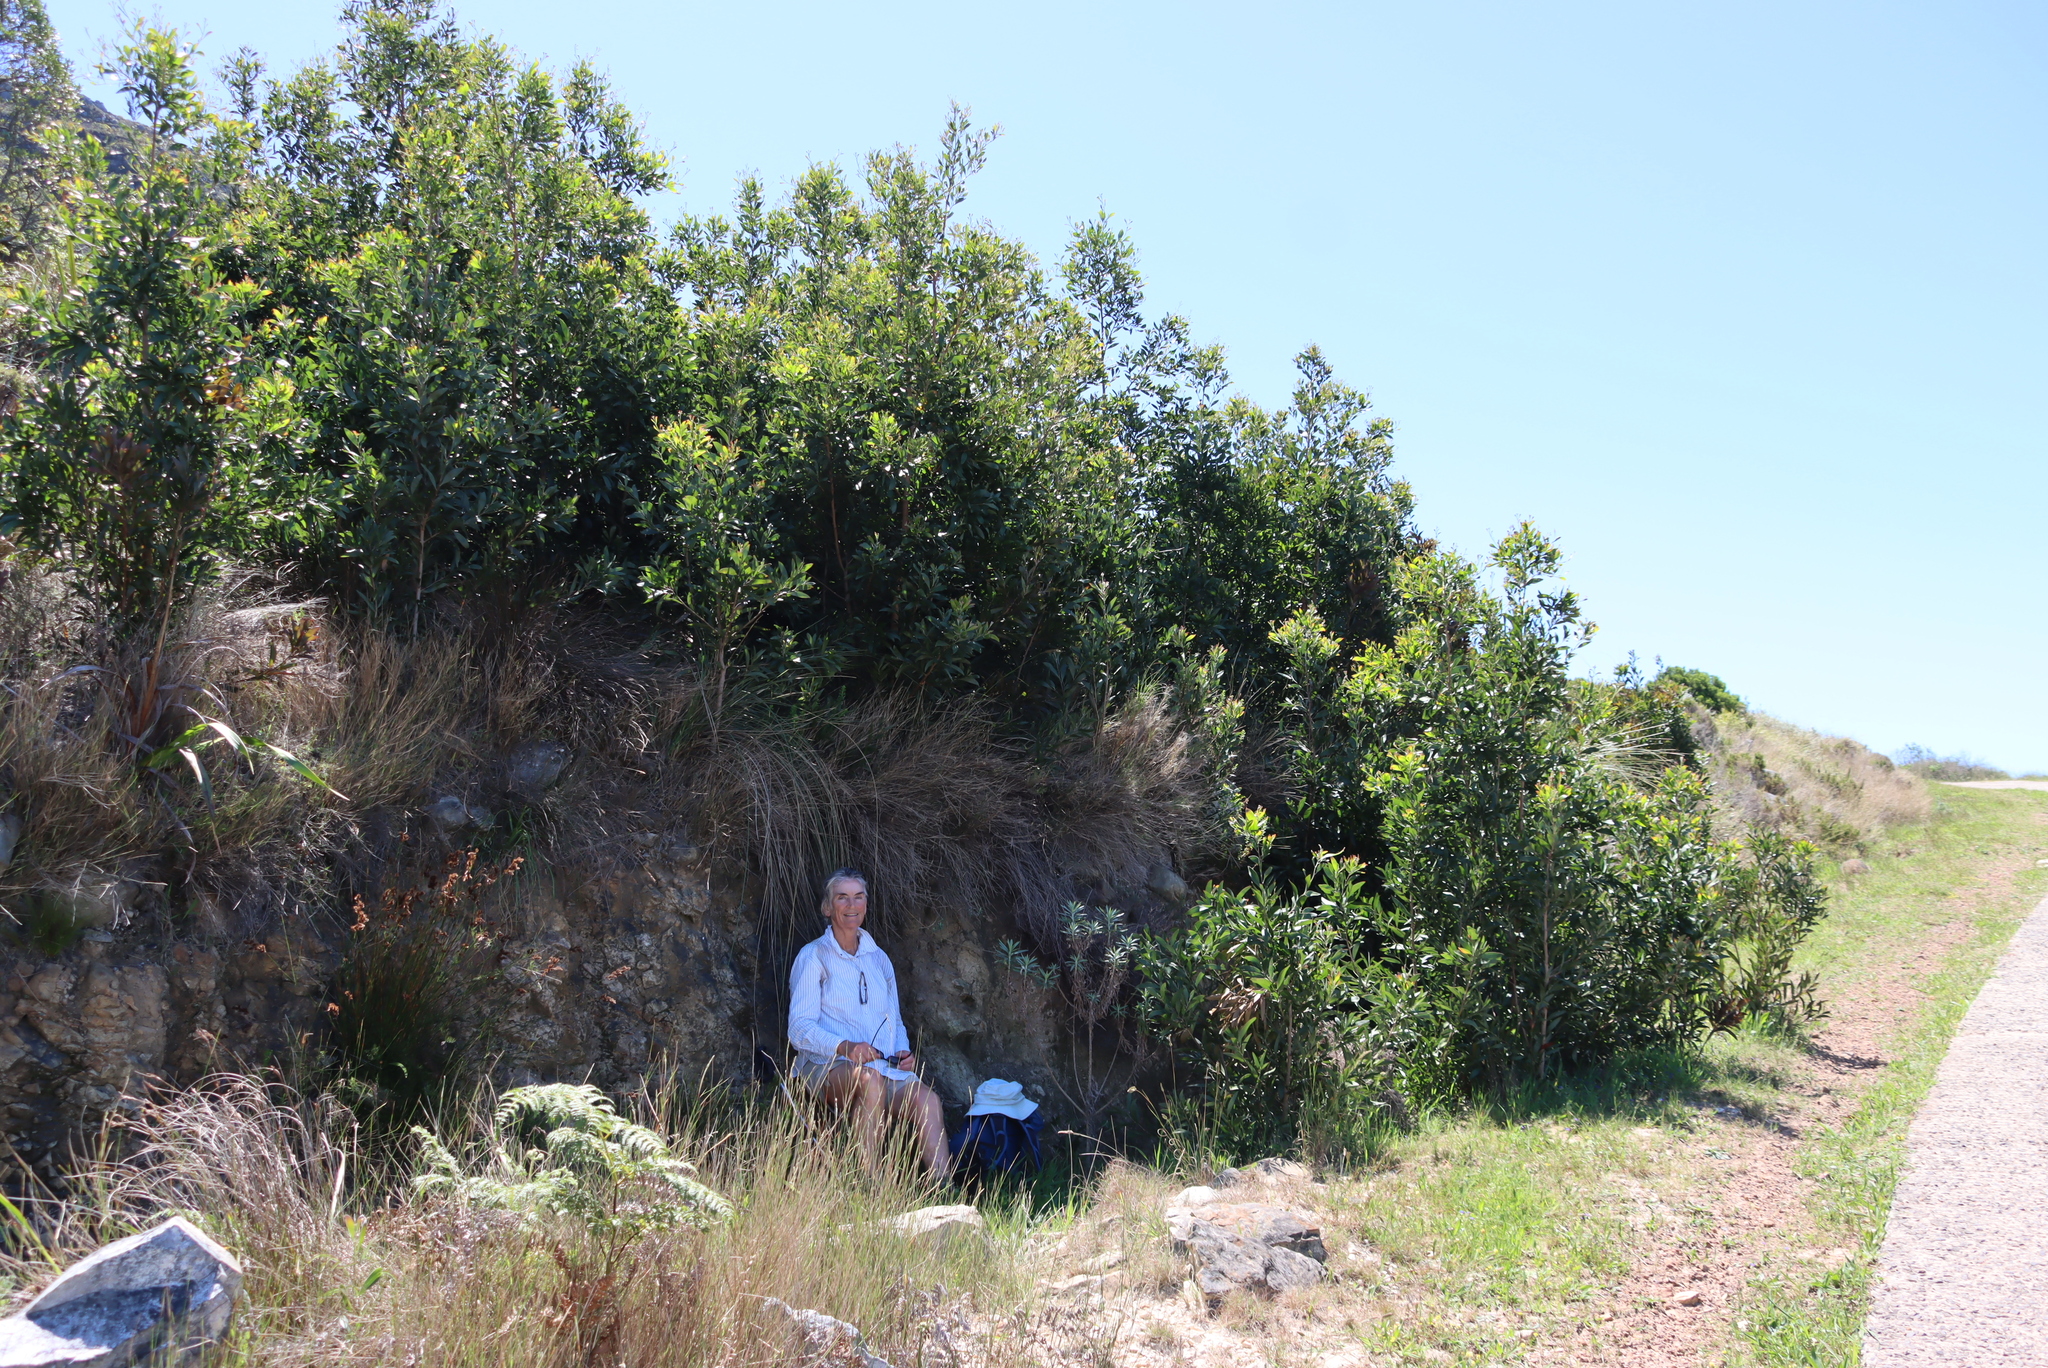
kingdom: Plantae
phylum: Tracheophyta
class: Magnoliopsida
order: Fabales
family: Fabaceae
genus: Acacia
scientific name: Acacia melanoxylon
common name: Blackwood
